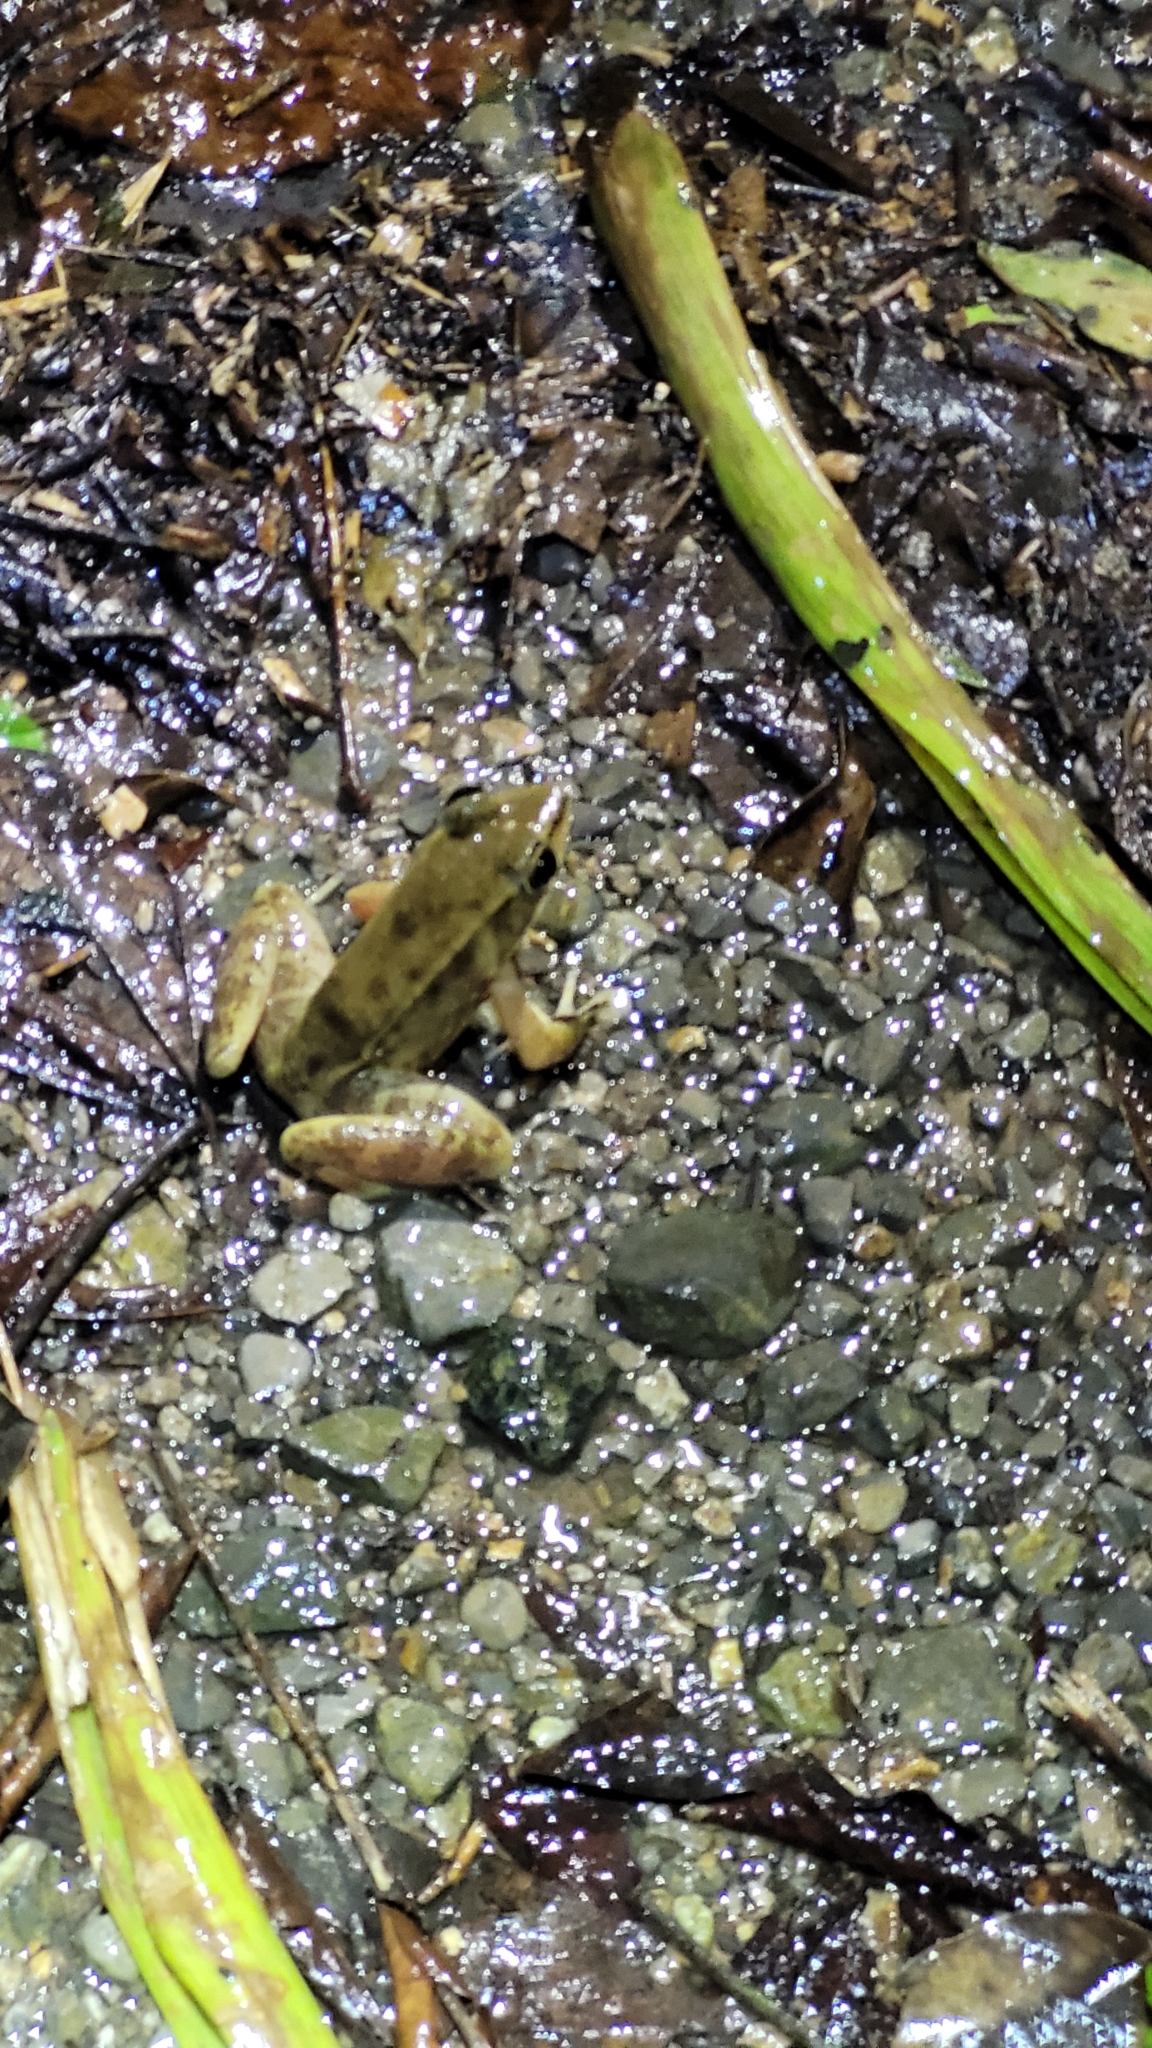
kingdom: Animalia
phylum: Chordata
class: Amphibia
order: Anura
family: Ranidae
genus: Lithobates
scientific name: Lithobates maculatus
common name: Highland frog
